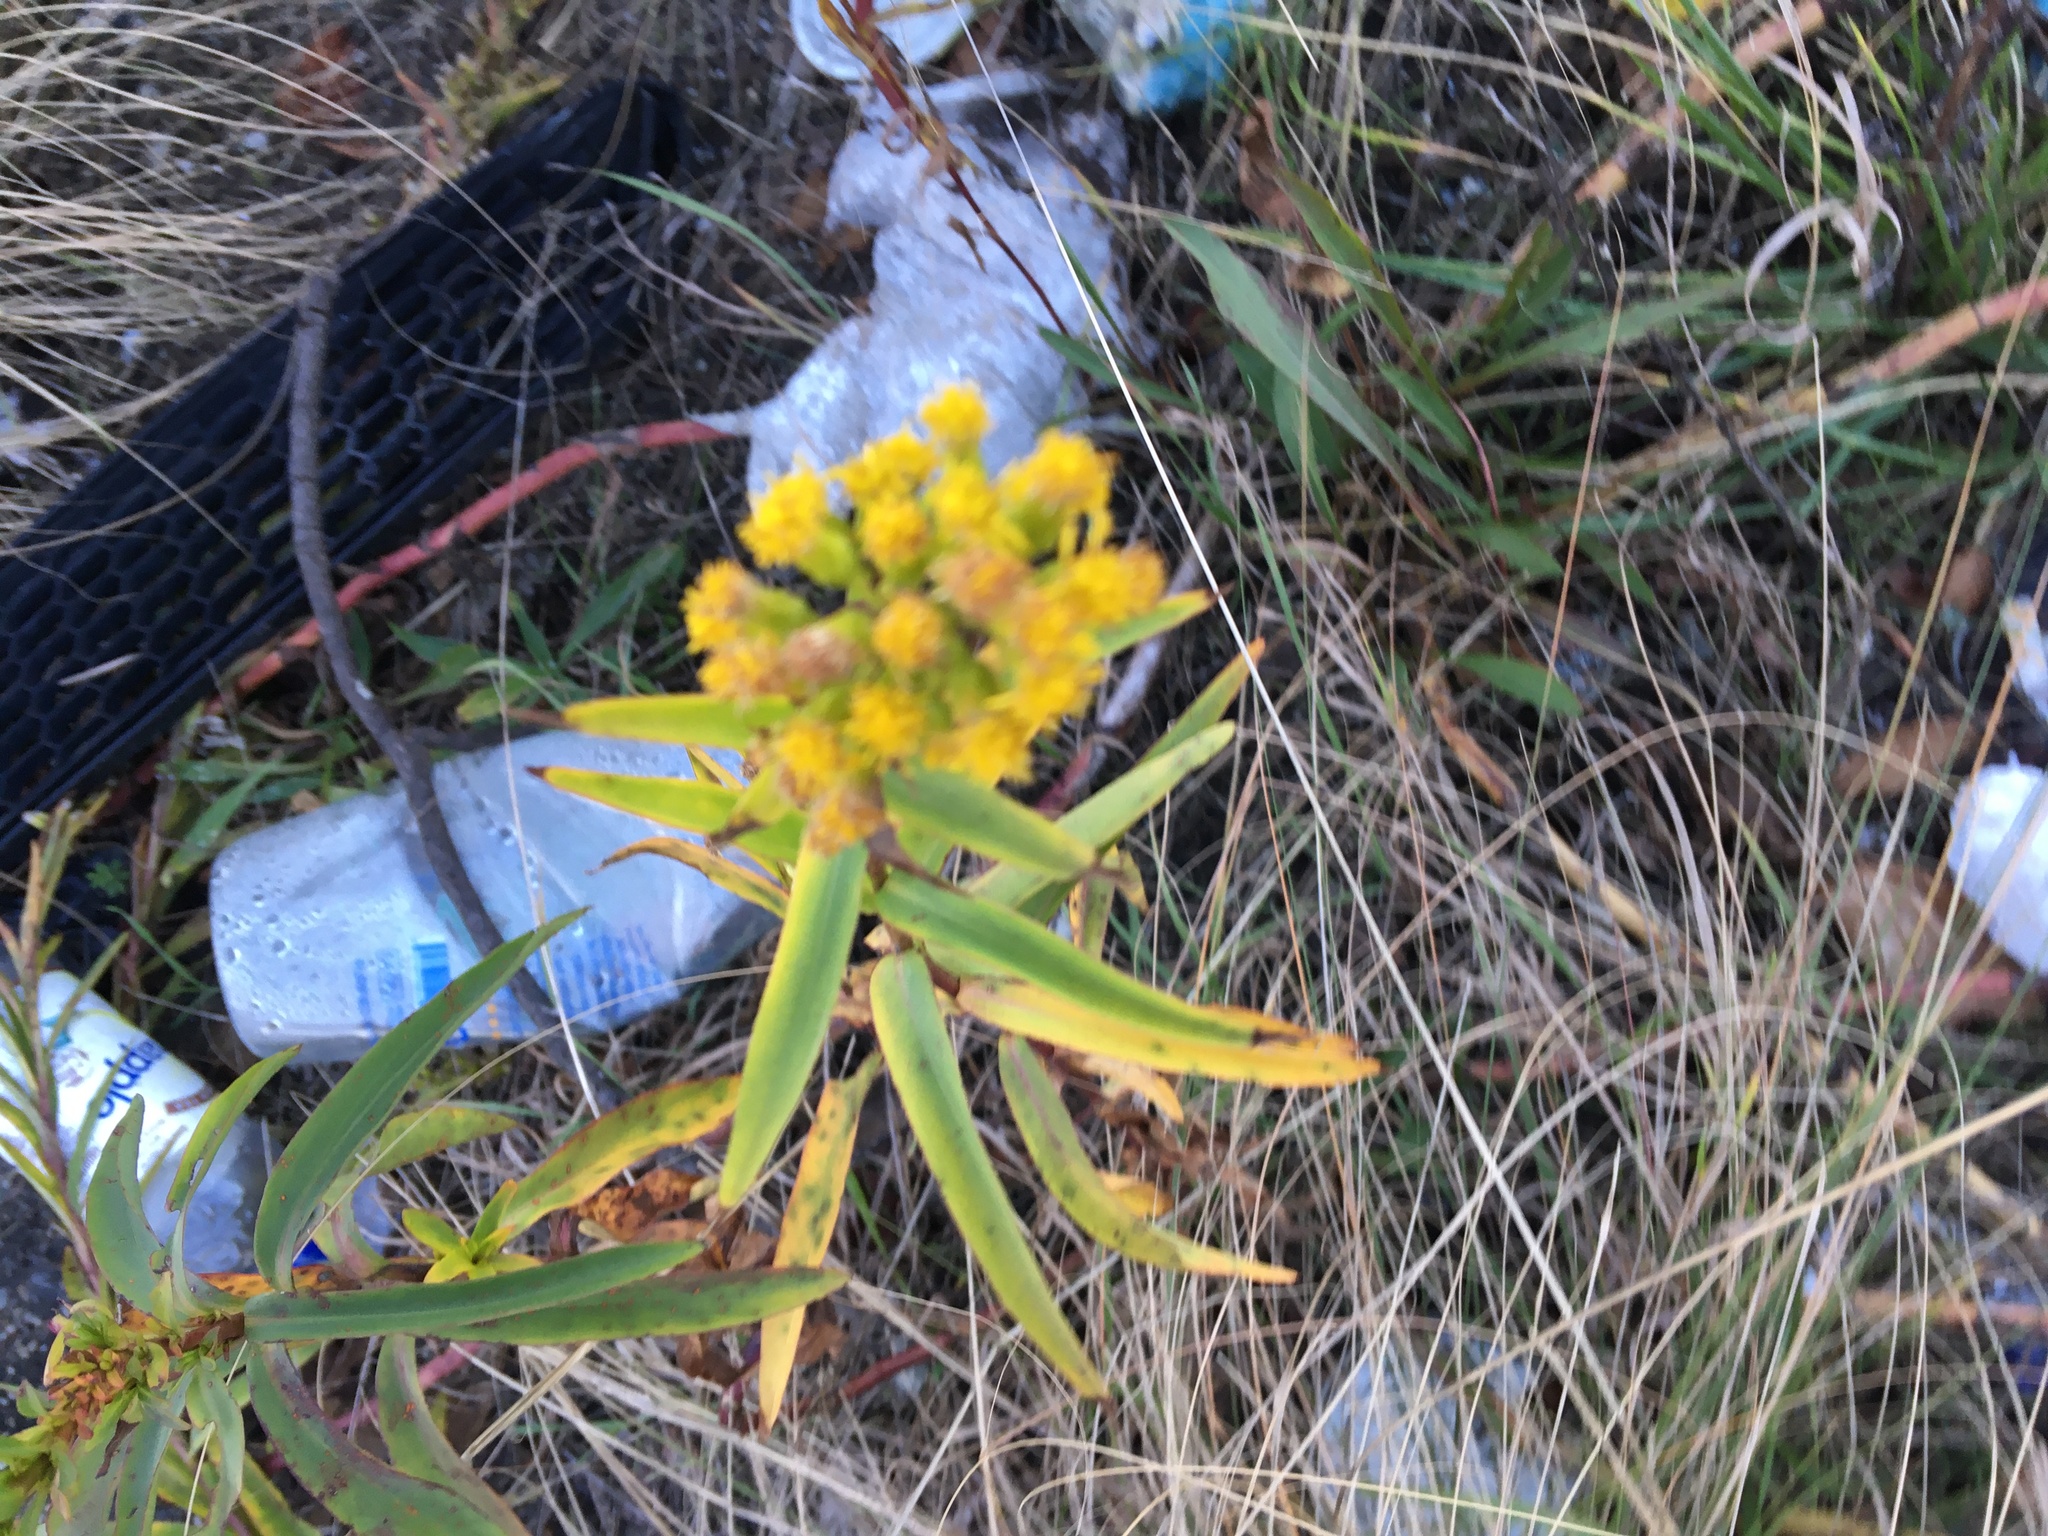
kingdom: Plantae
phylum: Tracheophyta
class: Magnoliopsida
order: Asterales
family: Asteraceae
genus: Solidago
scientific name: Solidago sempervirens
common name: Salt-marsh goldenrod
